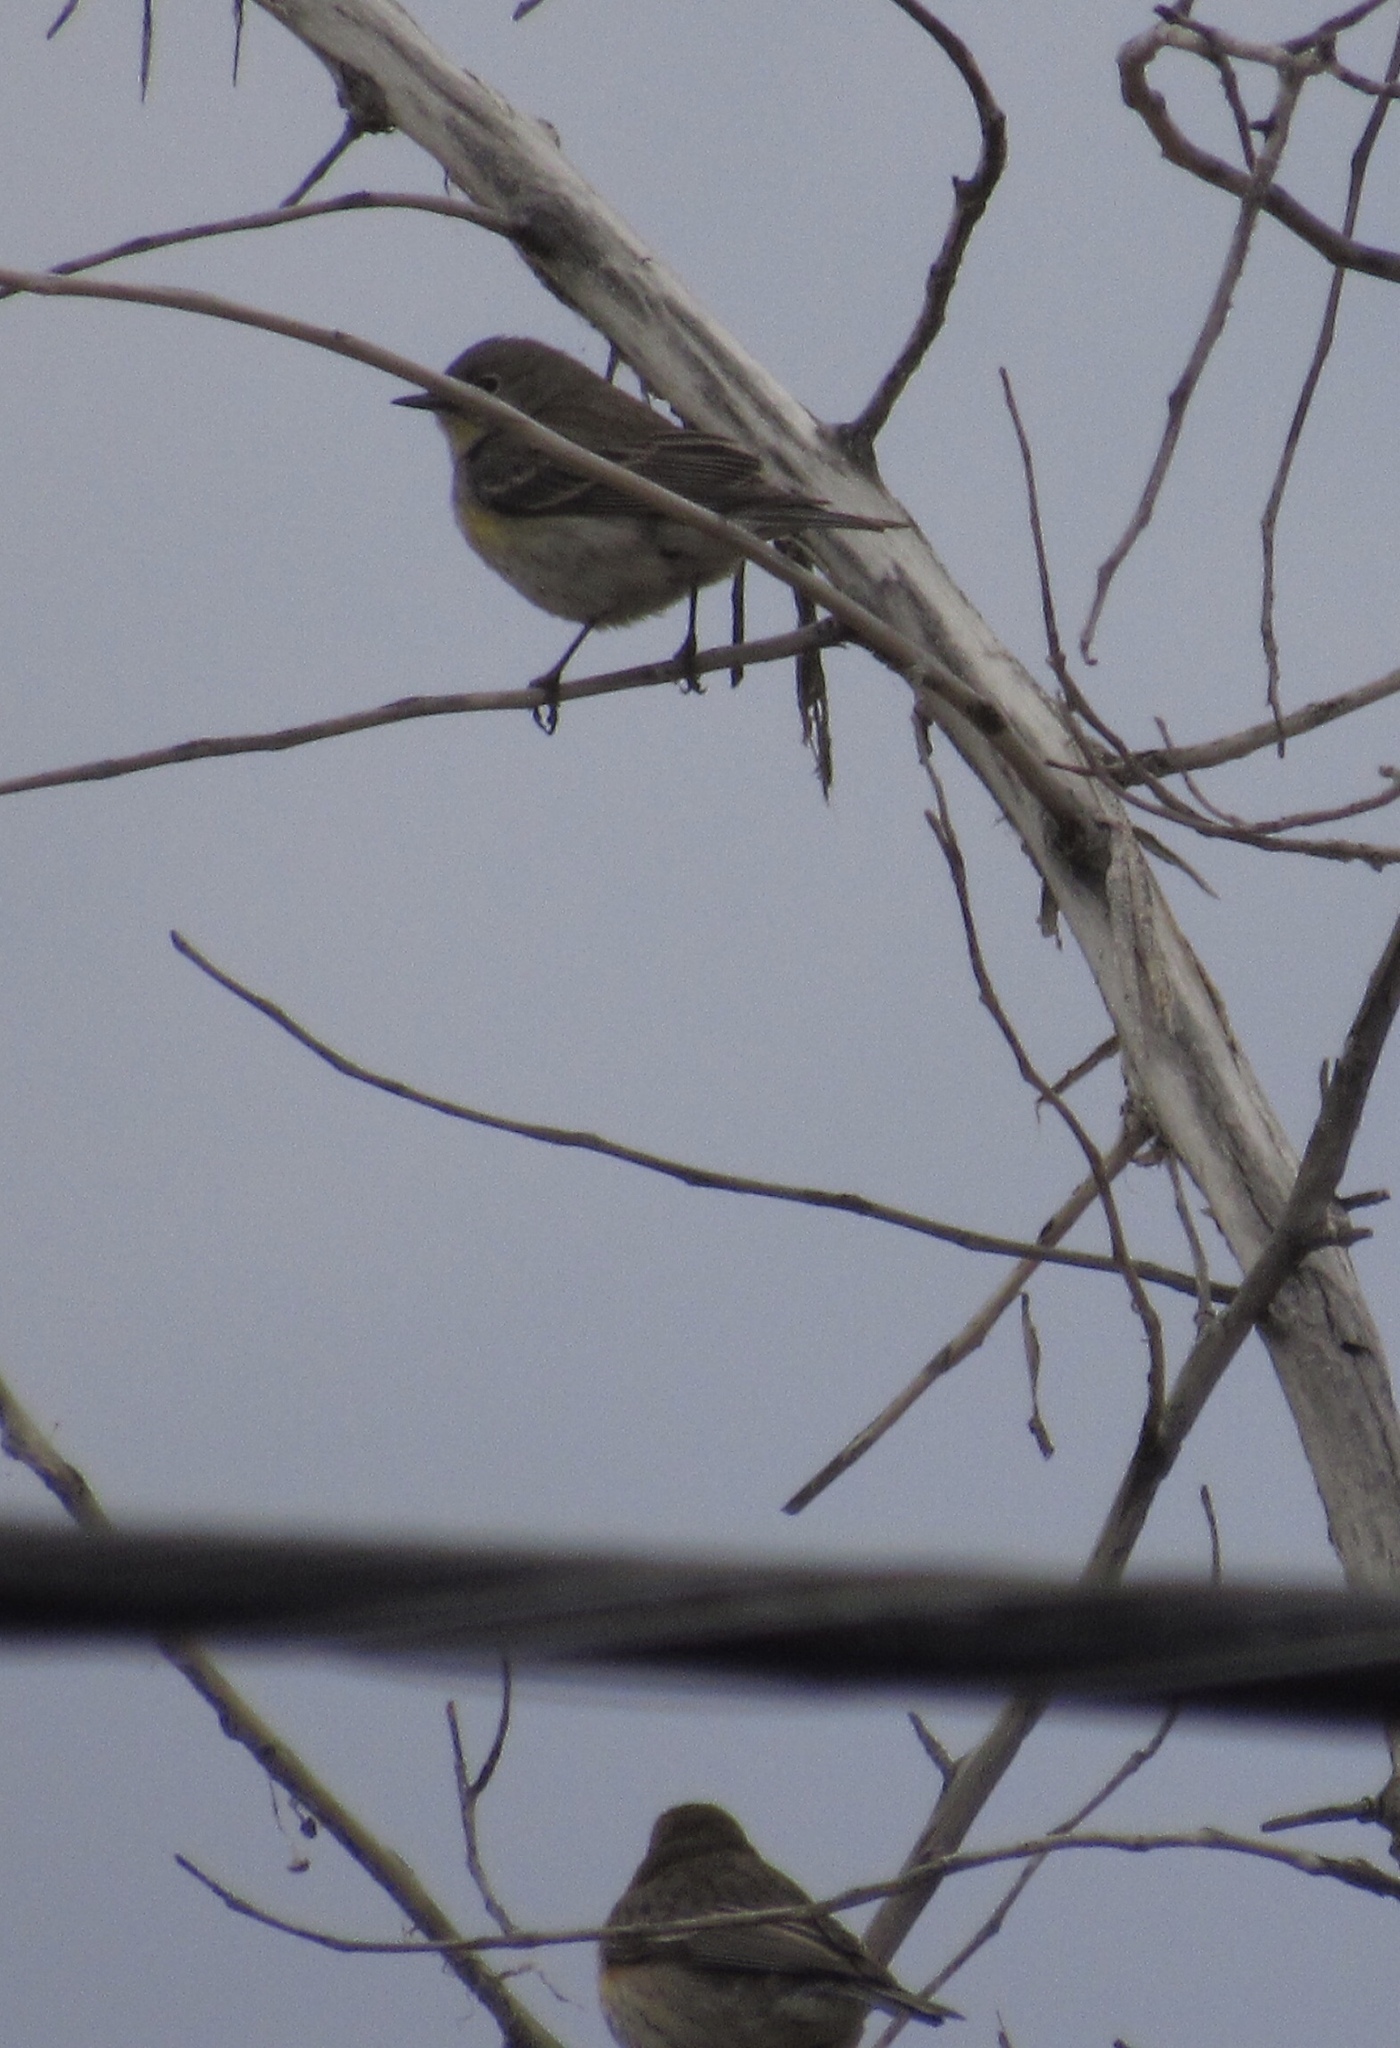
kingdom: Animalia
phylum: Chordata
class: Aves
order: Passeriformes
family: Parulidae
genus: Setophaga
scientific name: Setophaga auduboni
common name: Audubon's warbler
